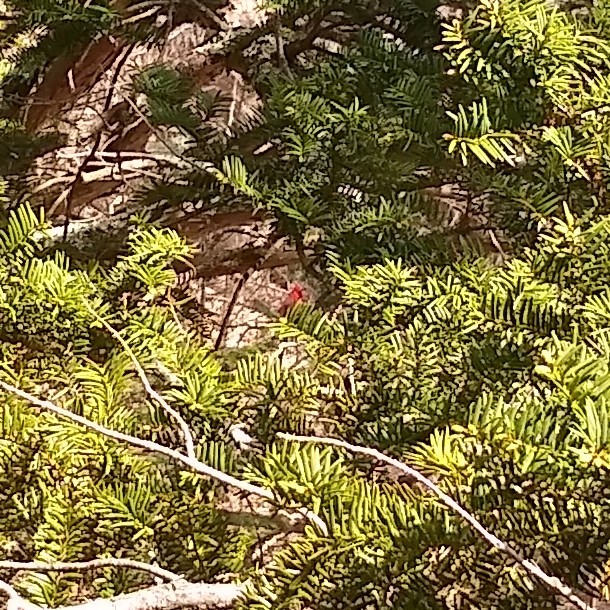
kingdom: Animalia
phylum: Chordata
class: Aves
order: Passeriformes
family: Cardinalidae
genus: Cardinalis
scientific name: Cardinalis cardinalis
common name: Northern cardinal
